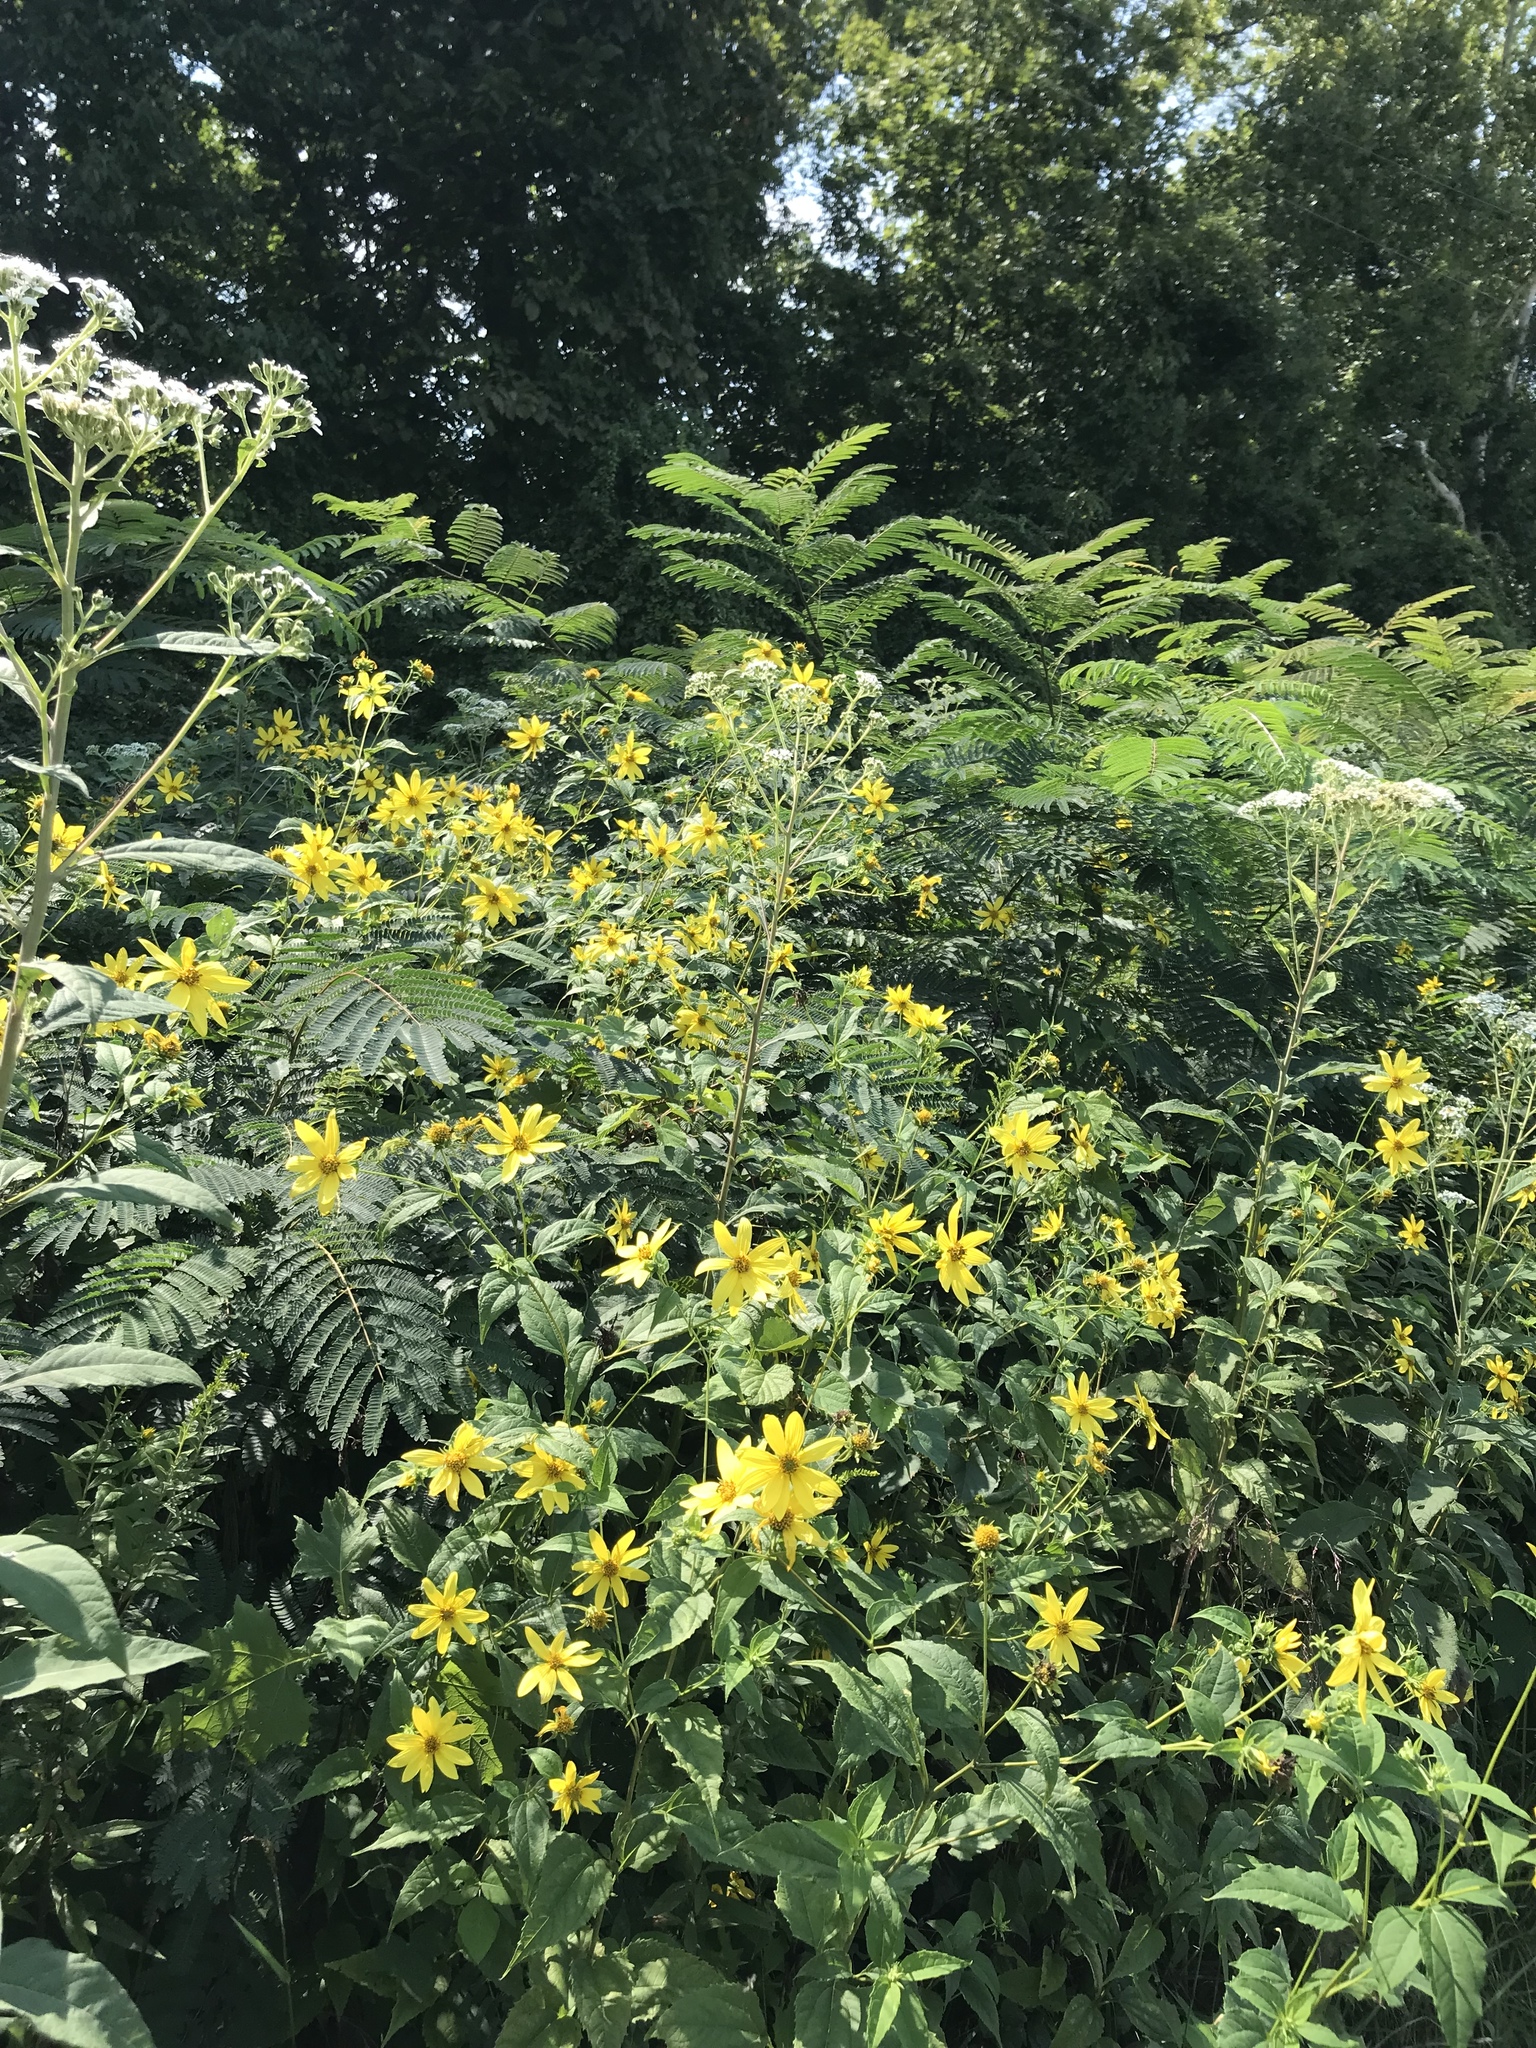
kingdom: Plantae
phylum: Tracheophyta
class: Magnoliopsida
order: Asterales
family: Asteraceae
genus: Smallanthus
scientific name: Smallanthus uvedalia
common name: Bear's-foot
